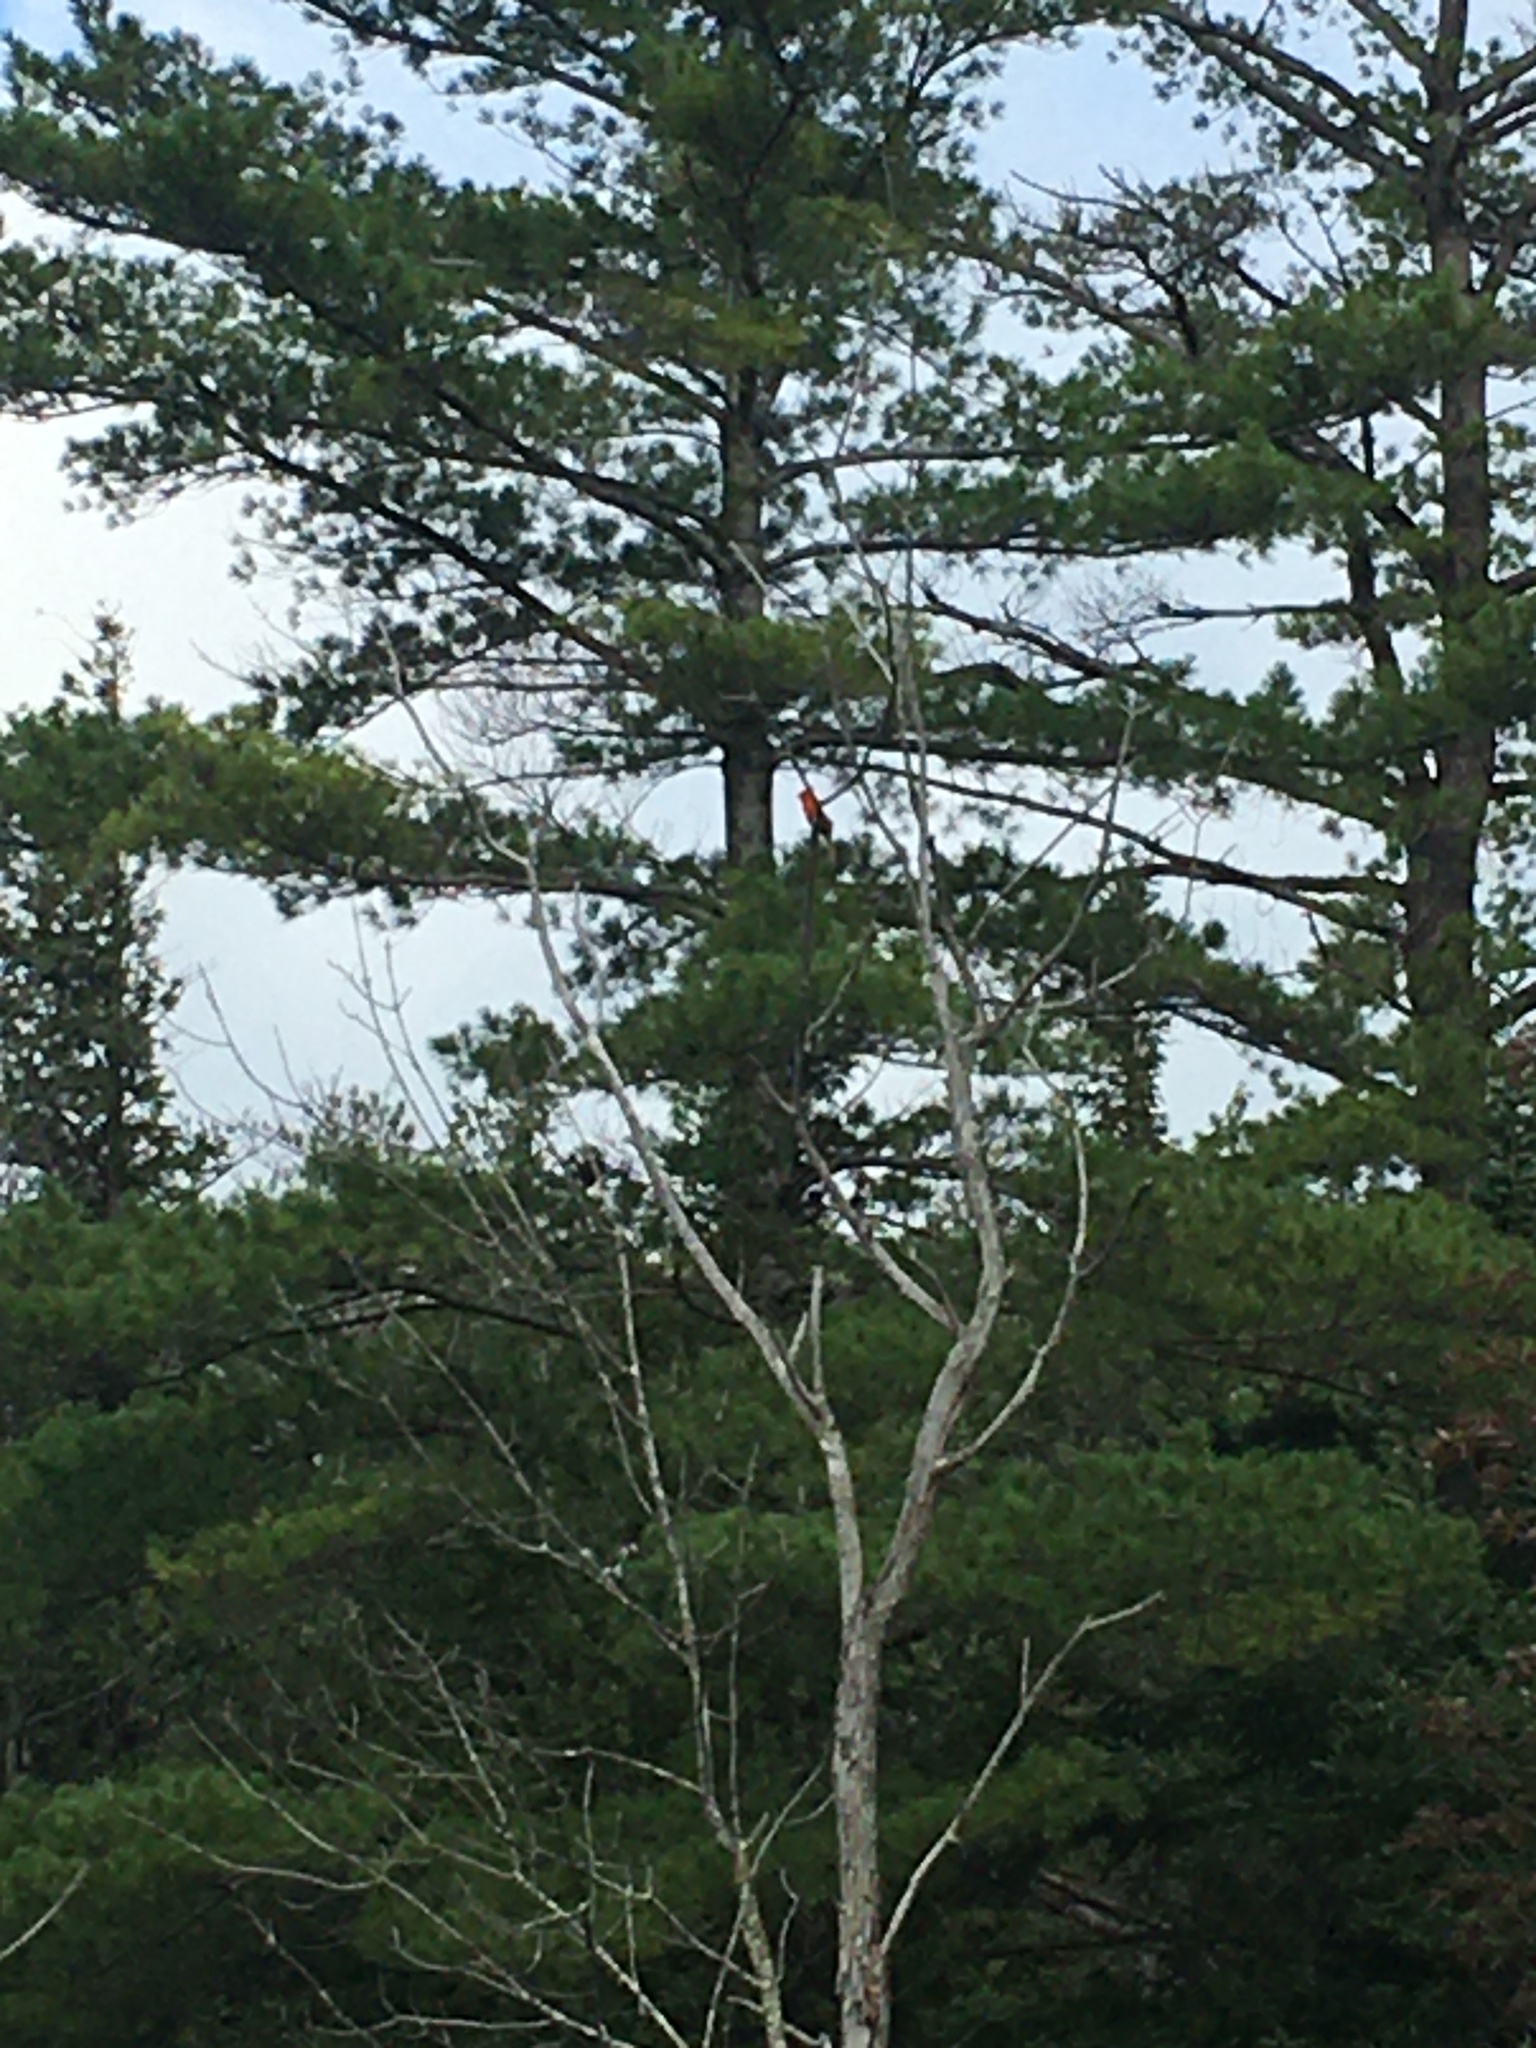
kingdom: Animalia
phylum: Chordata
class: Aves
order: Passeriformes
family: Cardinalidae
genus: Cardinalis
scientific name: Cardinalis cardinalis
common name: Northern cardinal
